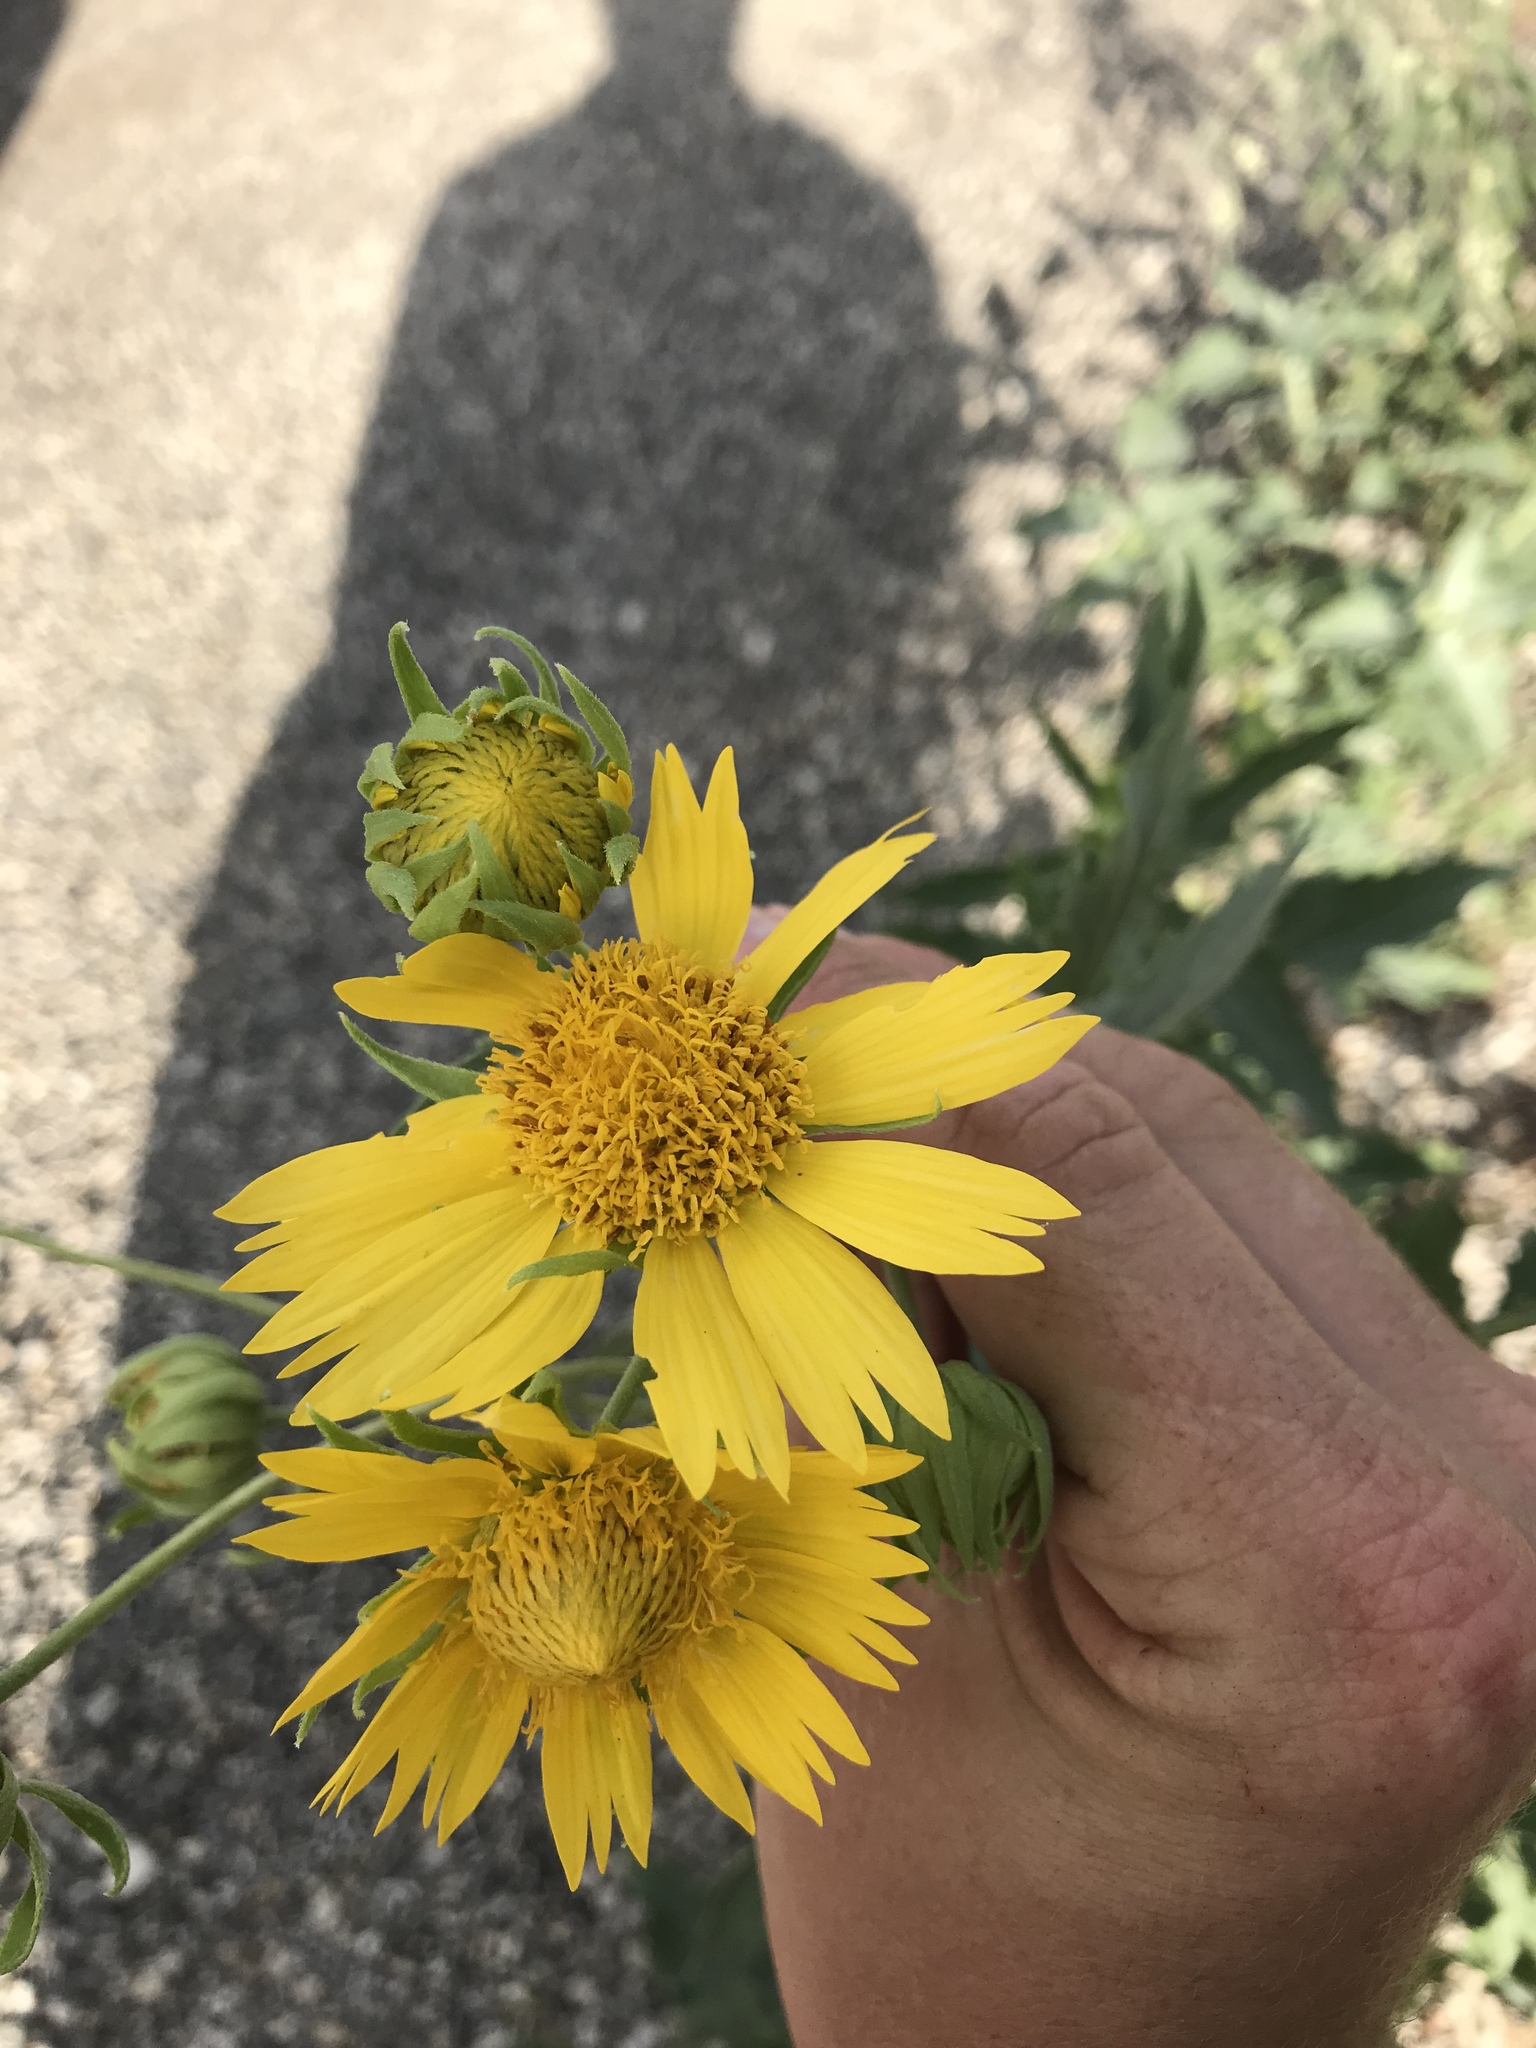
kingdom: Plantae
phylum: Tracheophyta
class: Magnoliopsida
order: Asterales
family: Asteraceae
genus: Verbesina
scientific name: Verbesina encelioides
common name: Golden crownbeard
